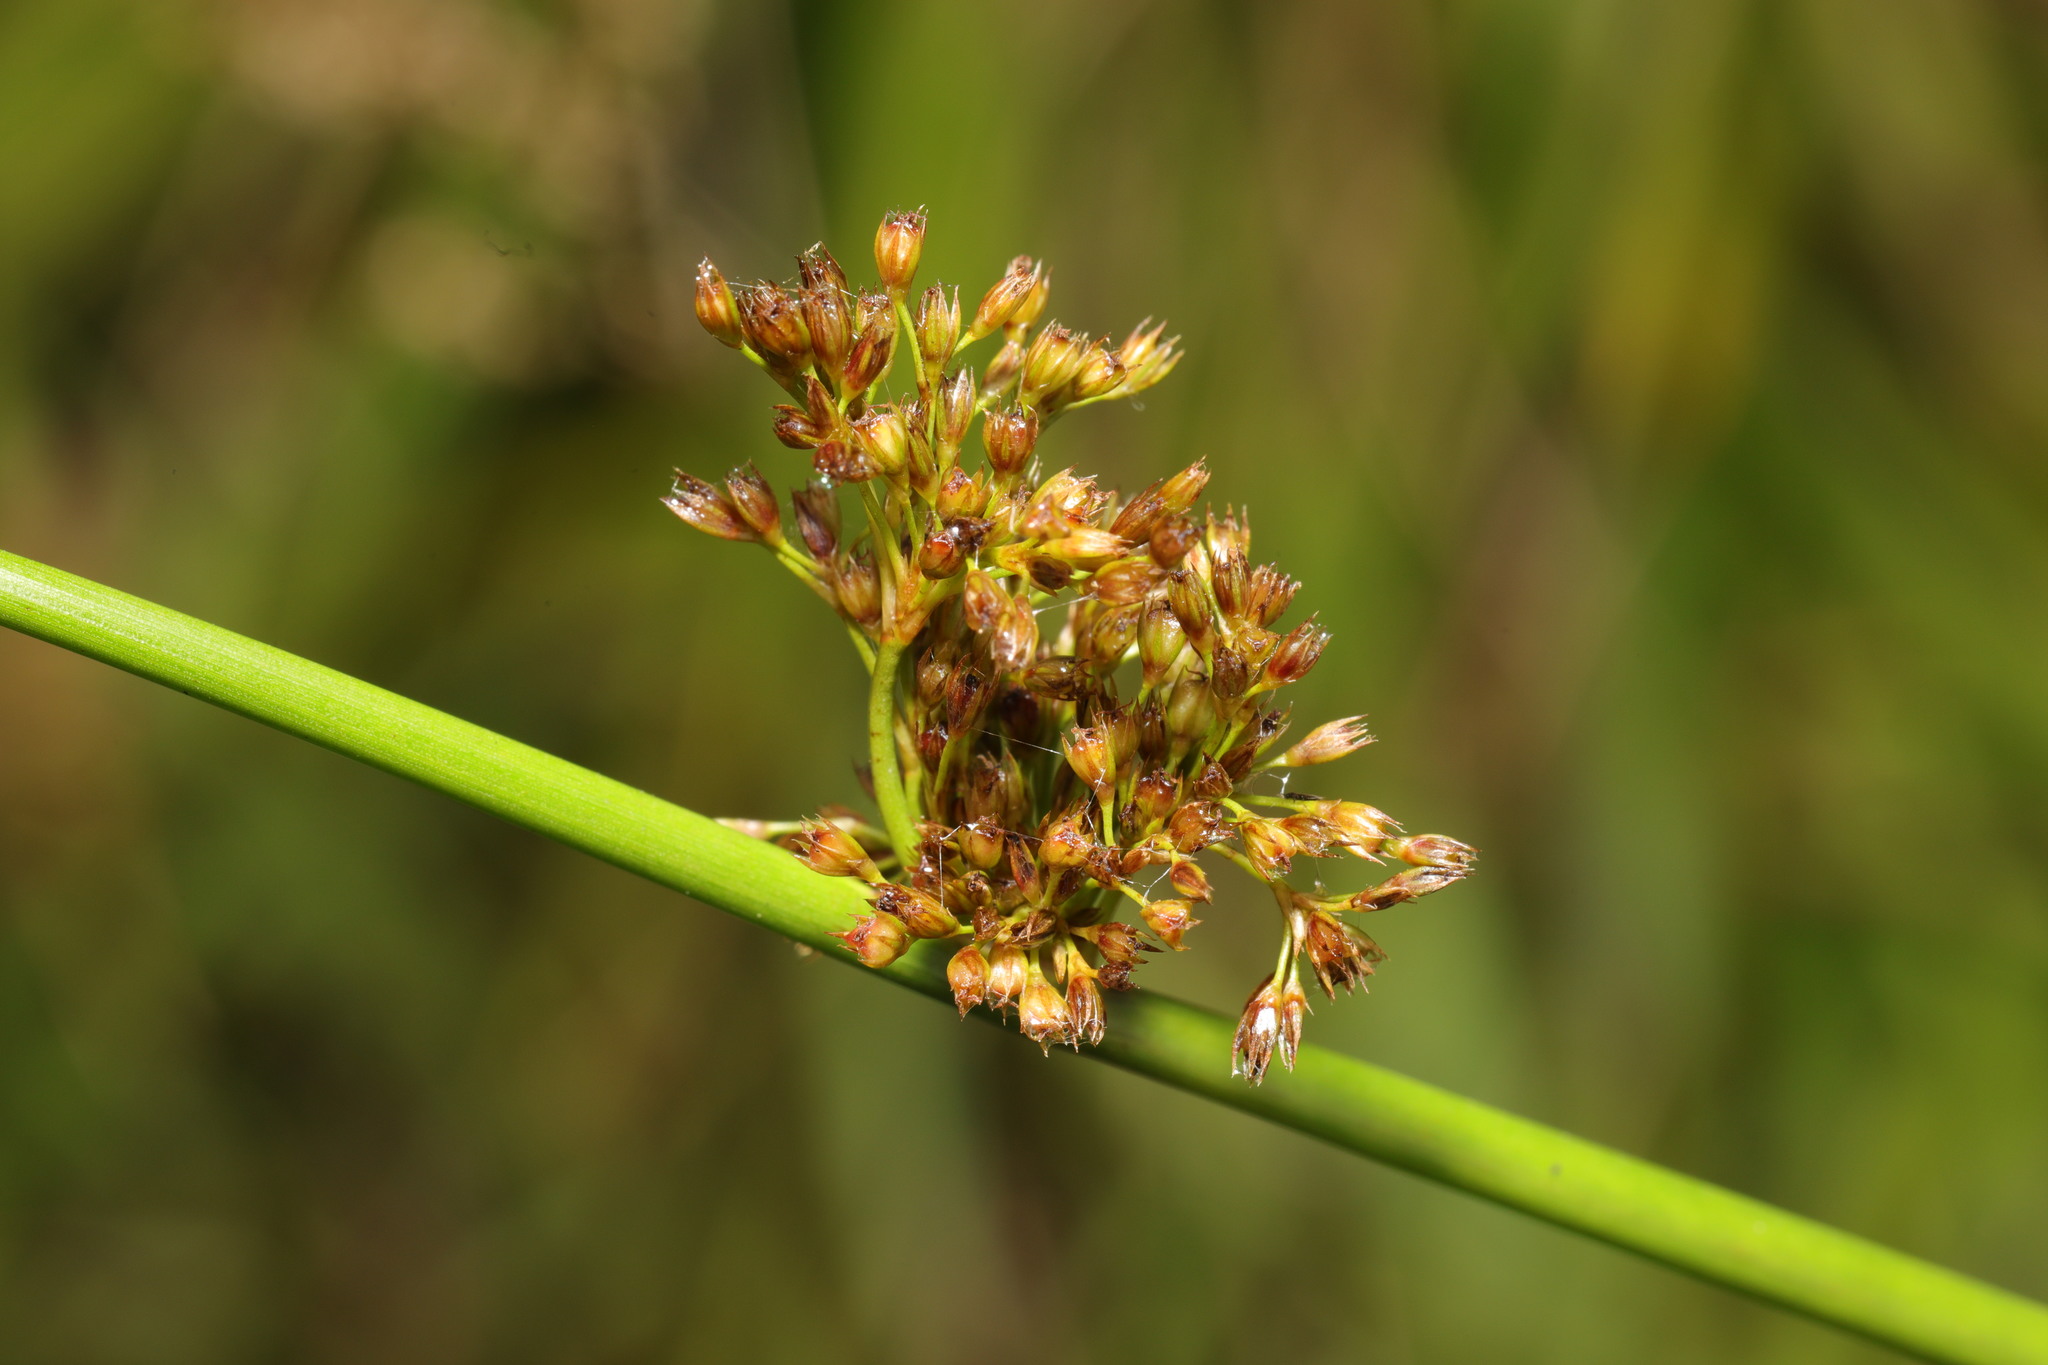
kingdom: Plantae
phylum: Tracheophyta
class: Liliopsida
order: Poales
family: Juncaceae
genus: Juncus
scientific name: Juncus effusus
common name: Soft rush
